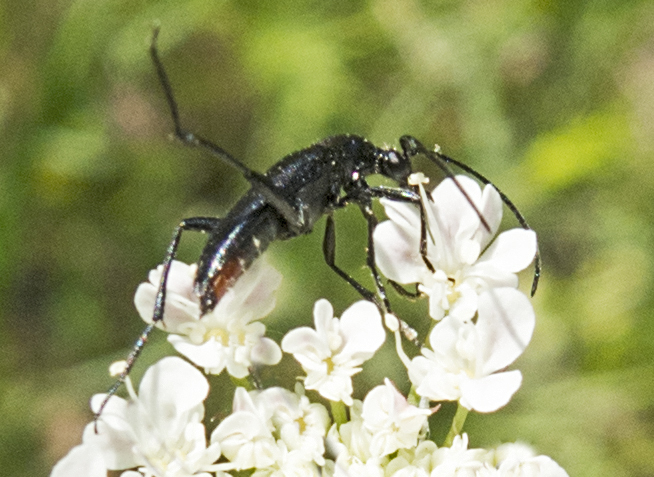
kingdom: Animalia
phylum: Arthropoda
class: Insecta
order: Coleoptera
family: Cerambycidae
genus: Stenurella
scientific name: Stenurella nigra
